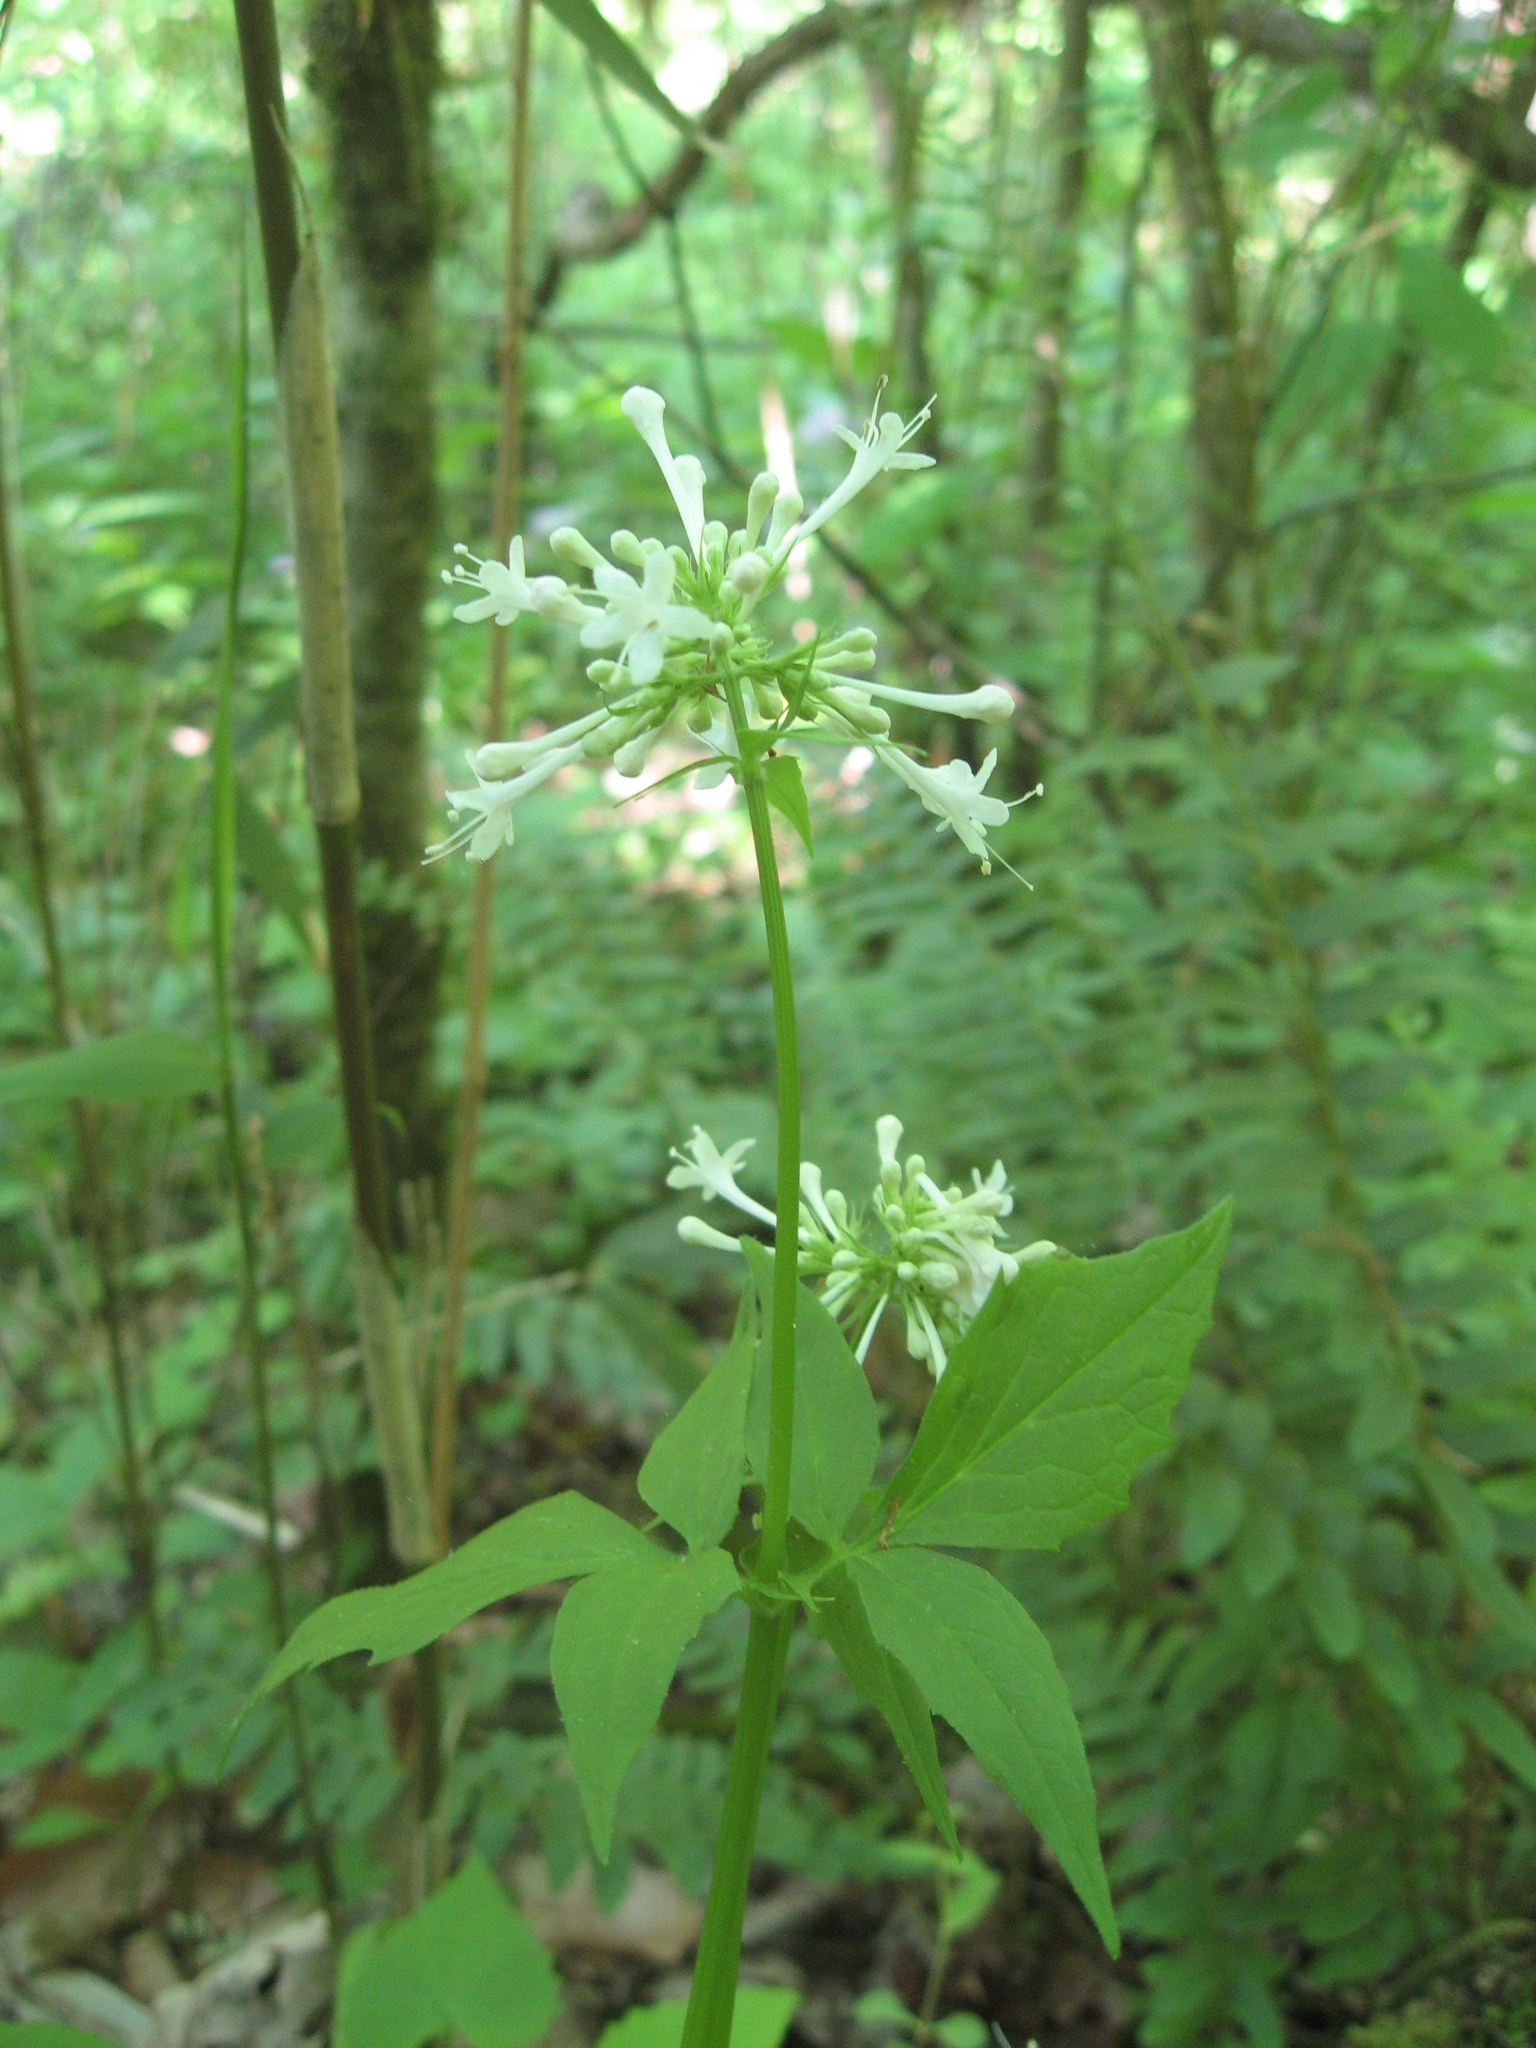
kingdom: Plantae
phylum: Tracheophyta
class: Magnoliopsida
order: Dipsacales
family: Caprifoliaceae
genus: Valeriana
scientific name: Valeriana pauciflora
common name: Long-tube valeriana
